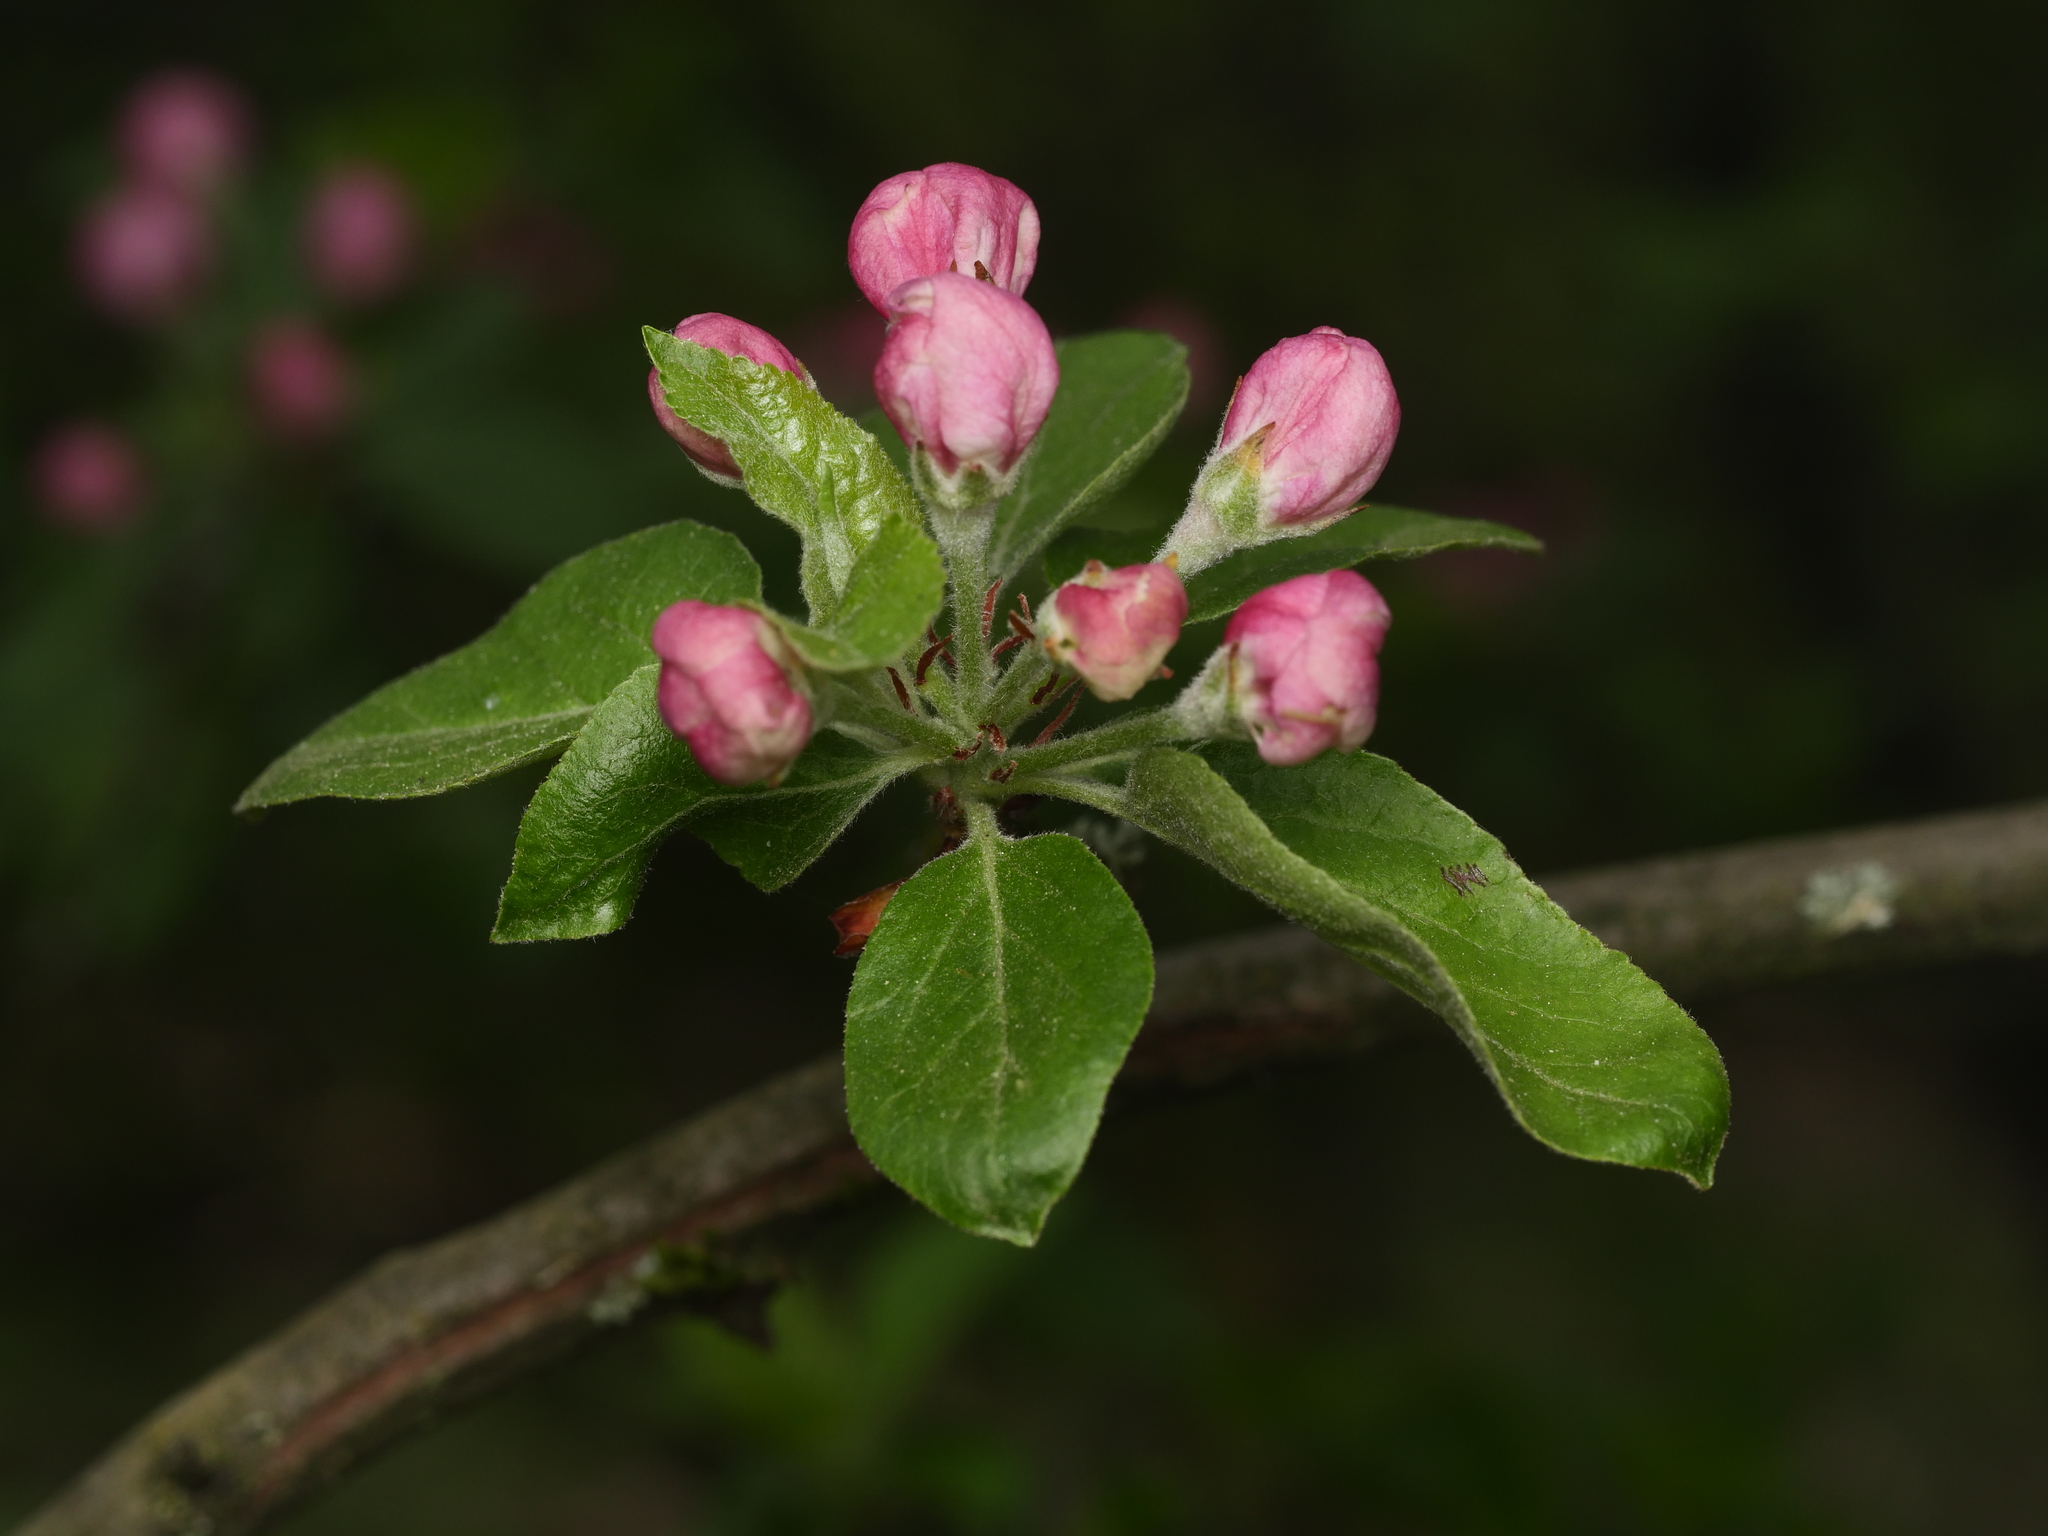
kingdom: Plantae
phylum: Tracheophyta
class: Magnoliopsida
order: Rosales
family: Rosaceae
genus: Malus
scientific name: Malus domestica
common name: Apple
